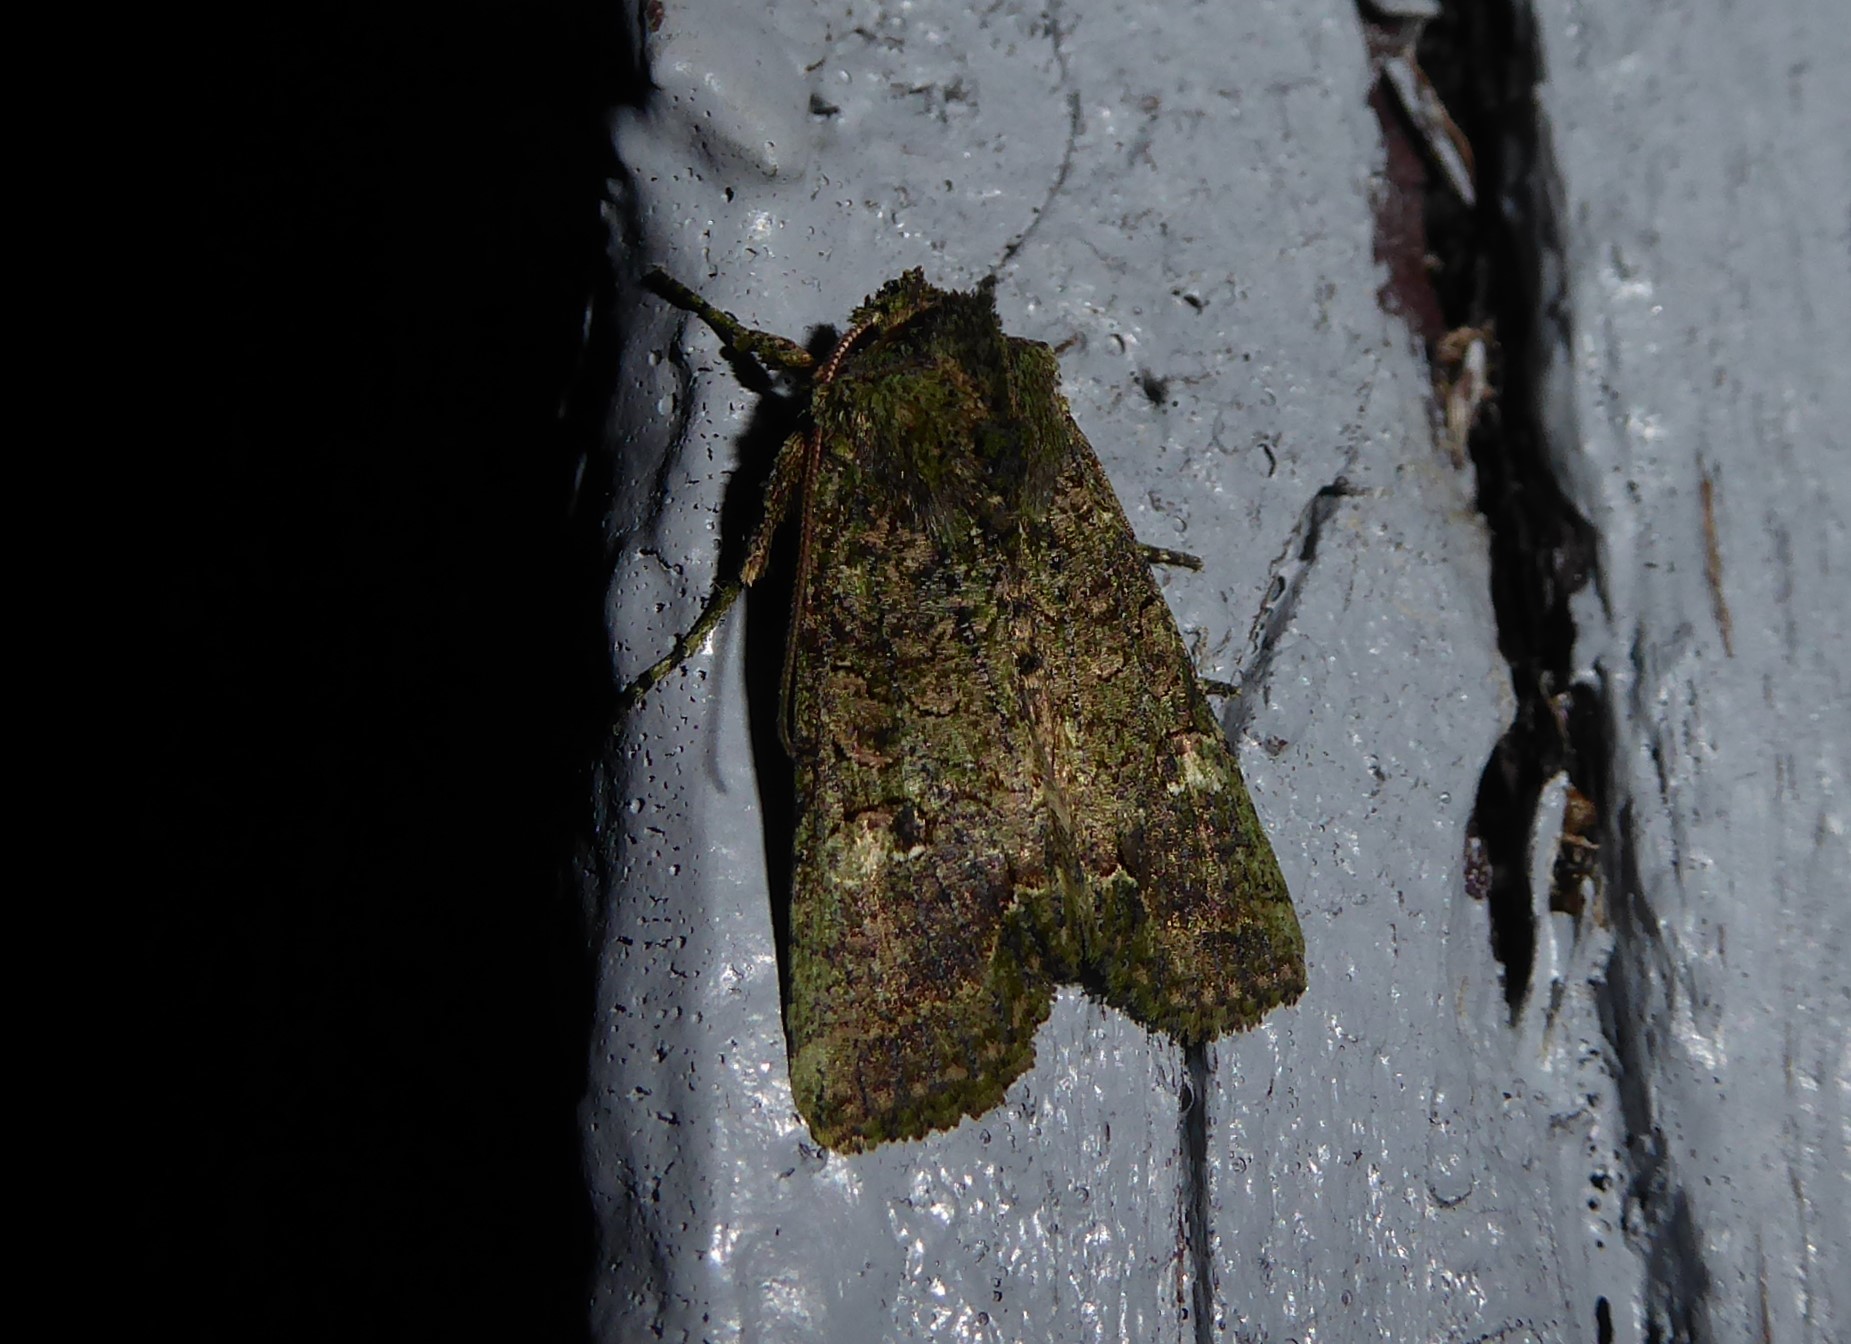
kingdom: Animalia
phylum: Arthropoda
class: Insecta
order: Lepidoptera
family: Noctuidae
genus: Meterana
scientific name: Meterana levis
